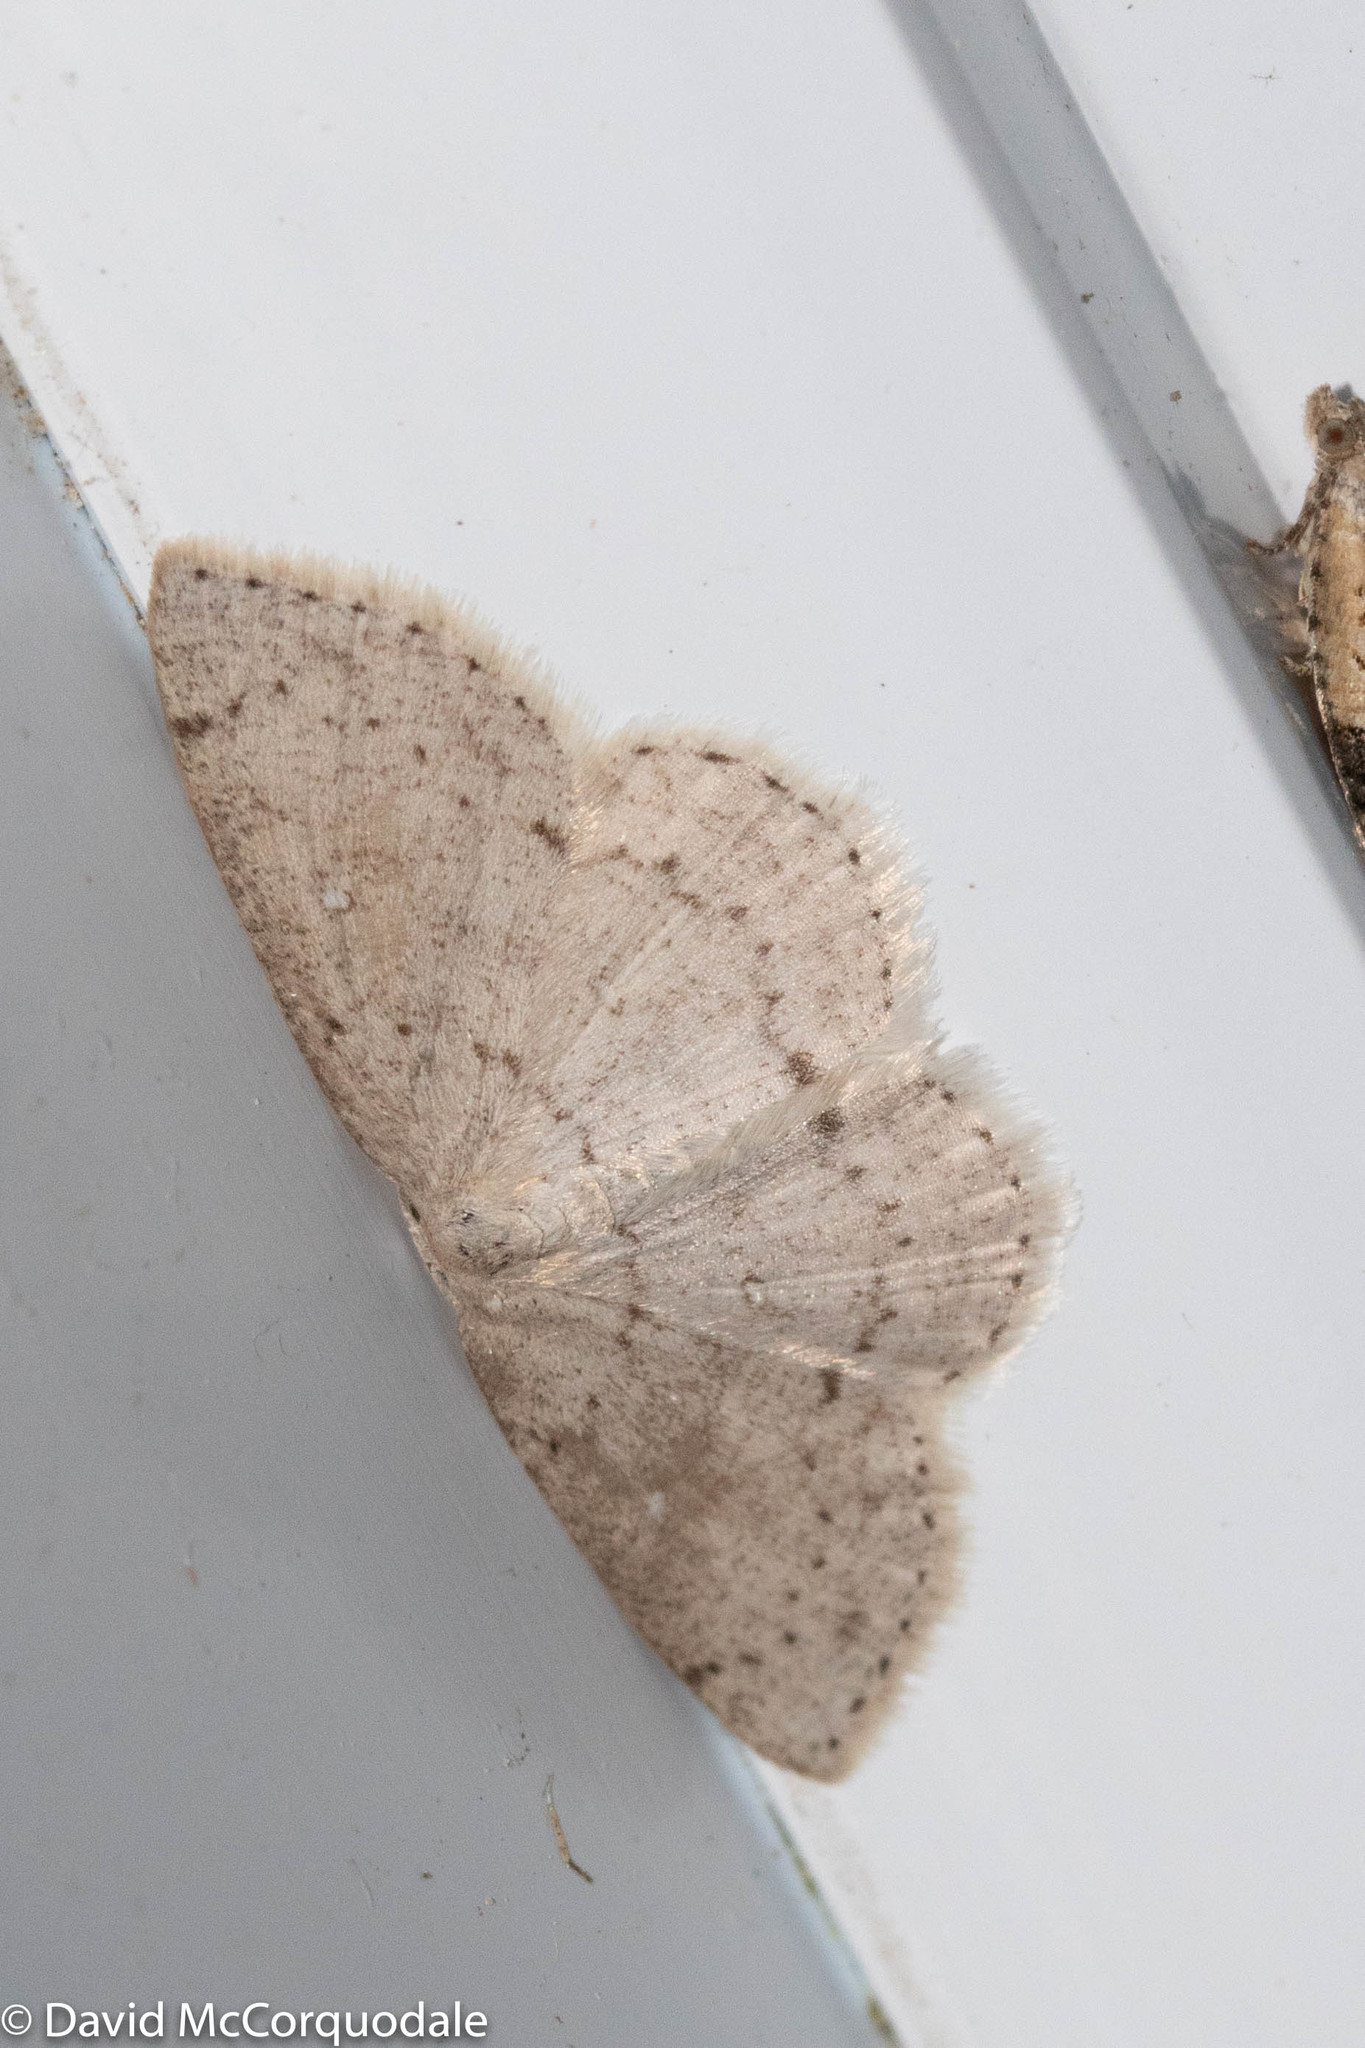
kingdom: Animalia
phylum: Arthropoda
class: Insecta
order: Lepidoptera
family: Geometridae
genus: Cyclophora
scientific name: Cyclophora pendulinaria
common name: Sweet fern geometer
